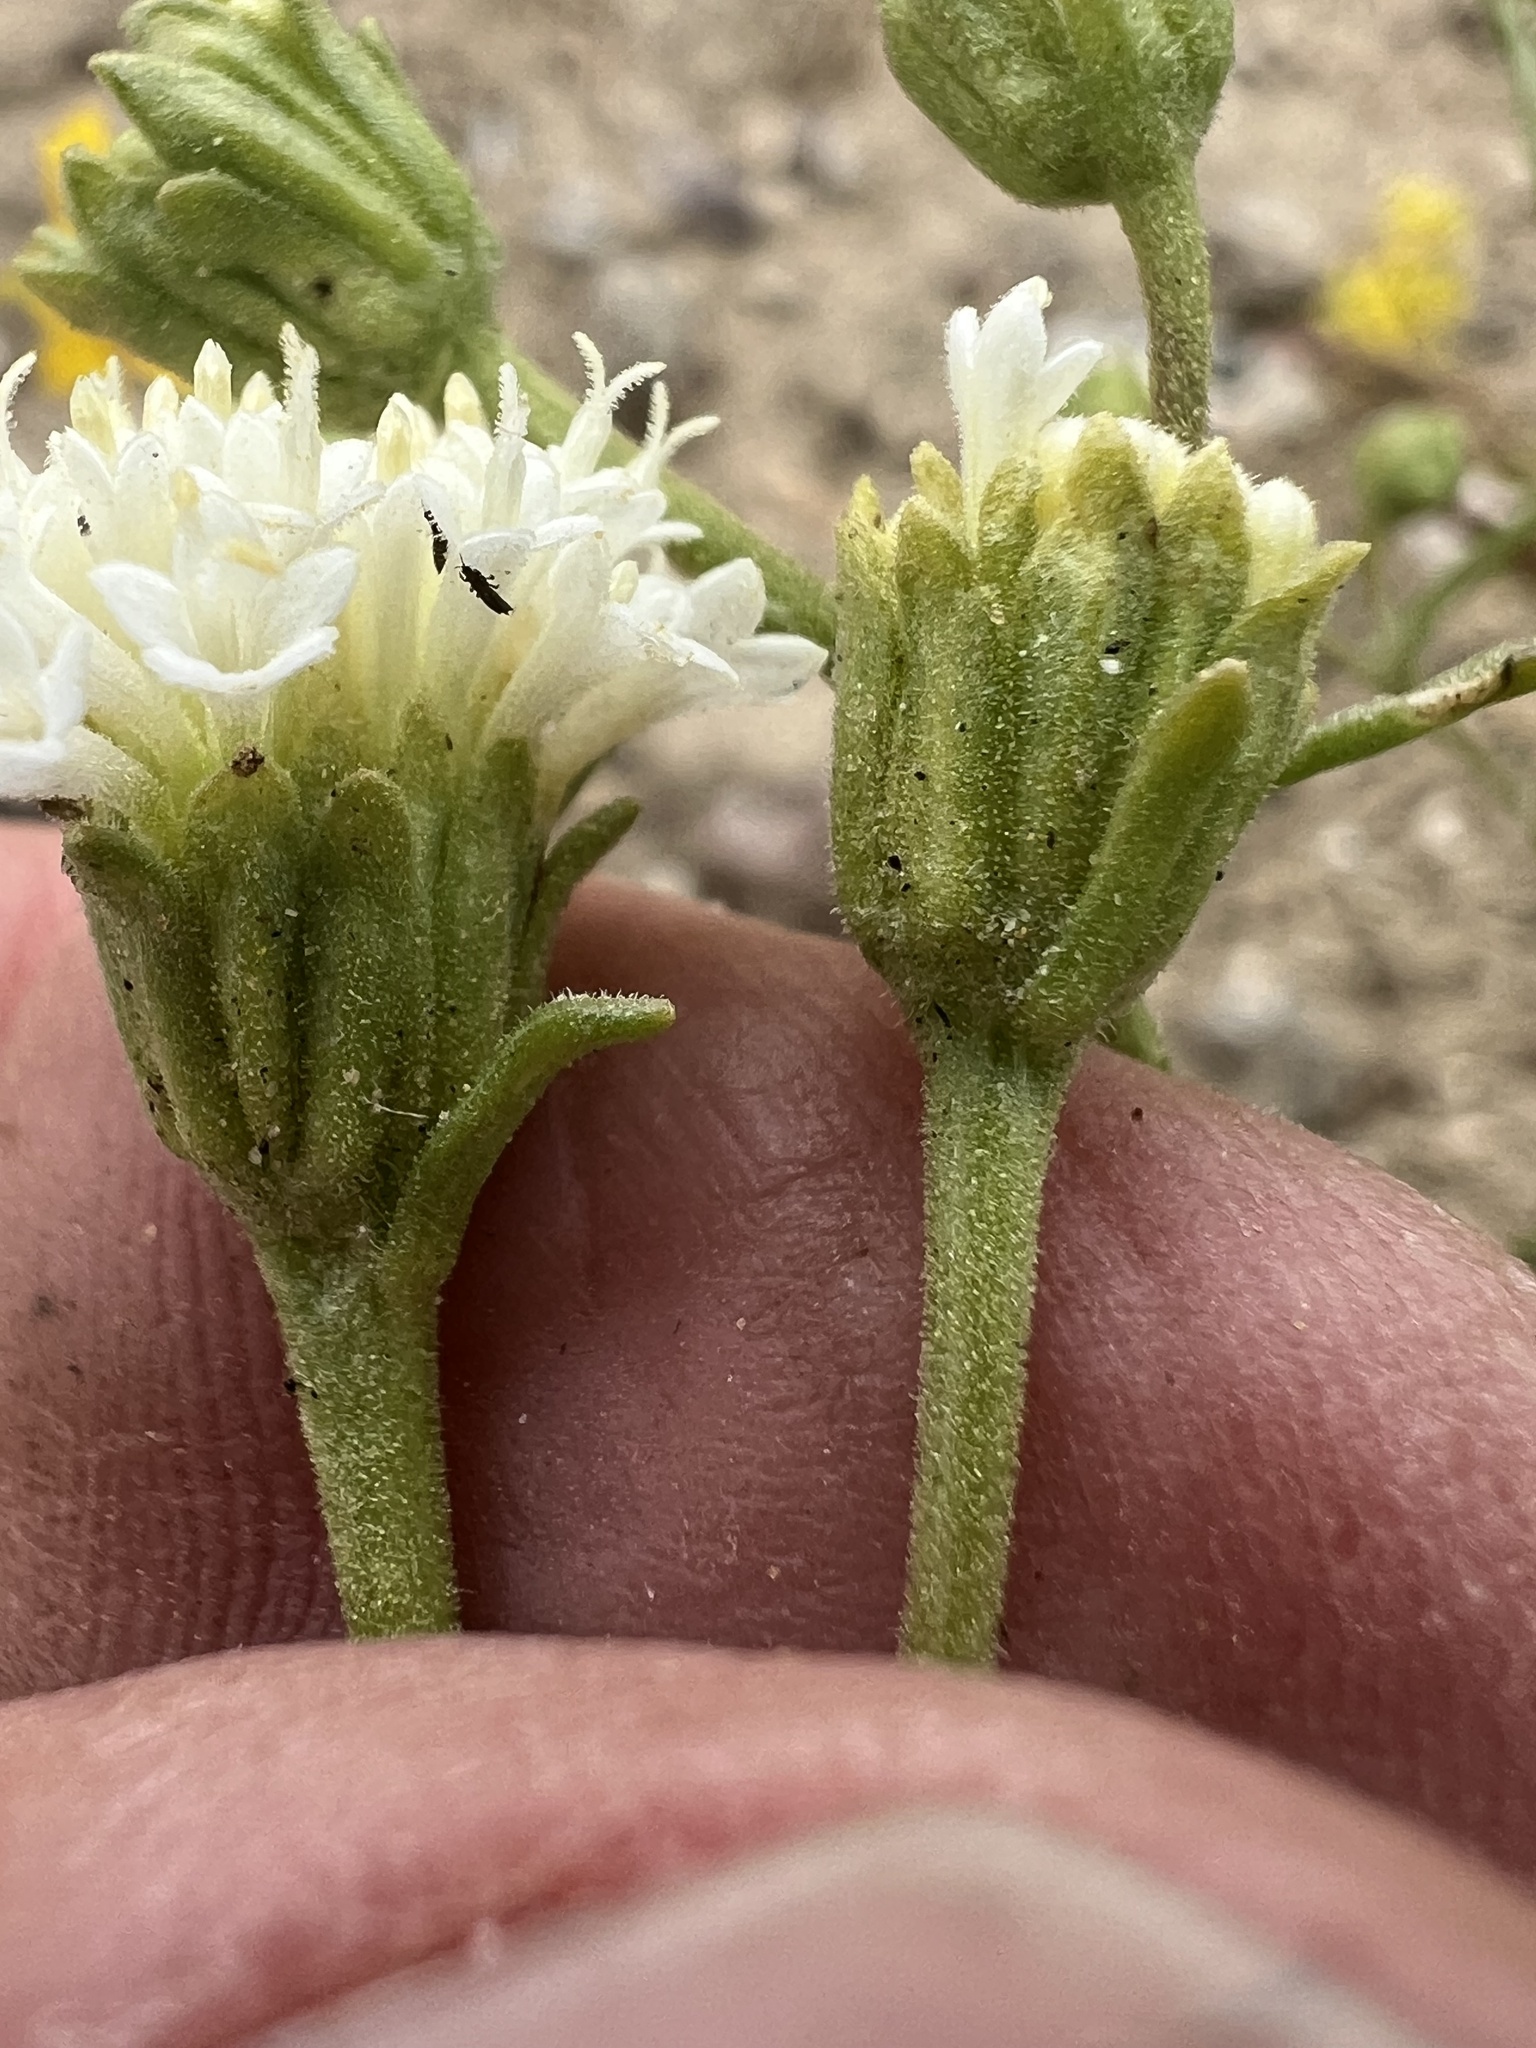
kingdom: Plantae
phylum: Tracheophyta
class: Magnoliopsida
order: Asterales
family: Asteraceae
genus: Chaenactis
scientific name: Chaenactis stevioides
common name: Desert pincushion
